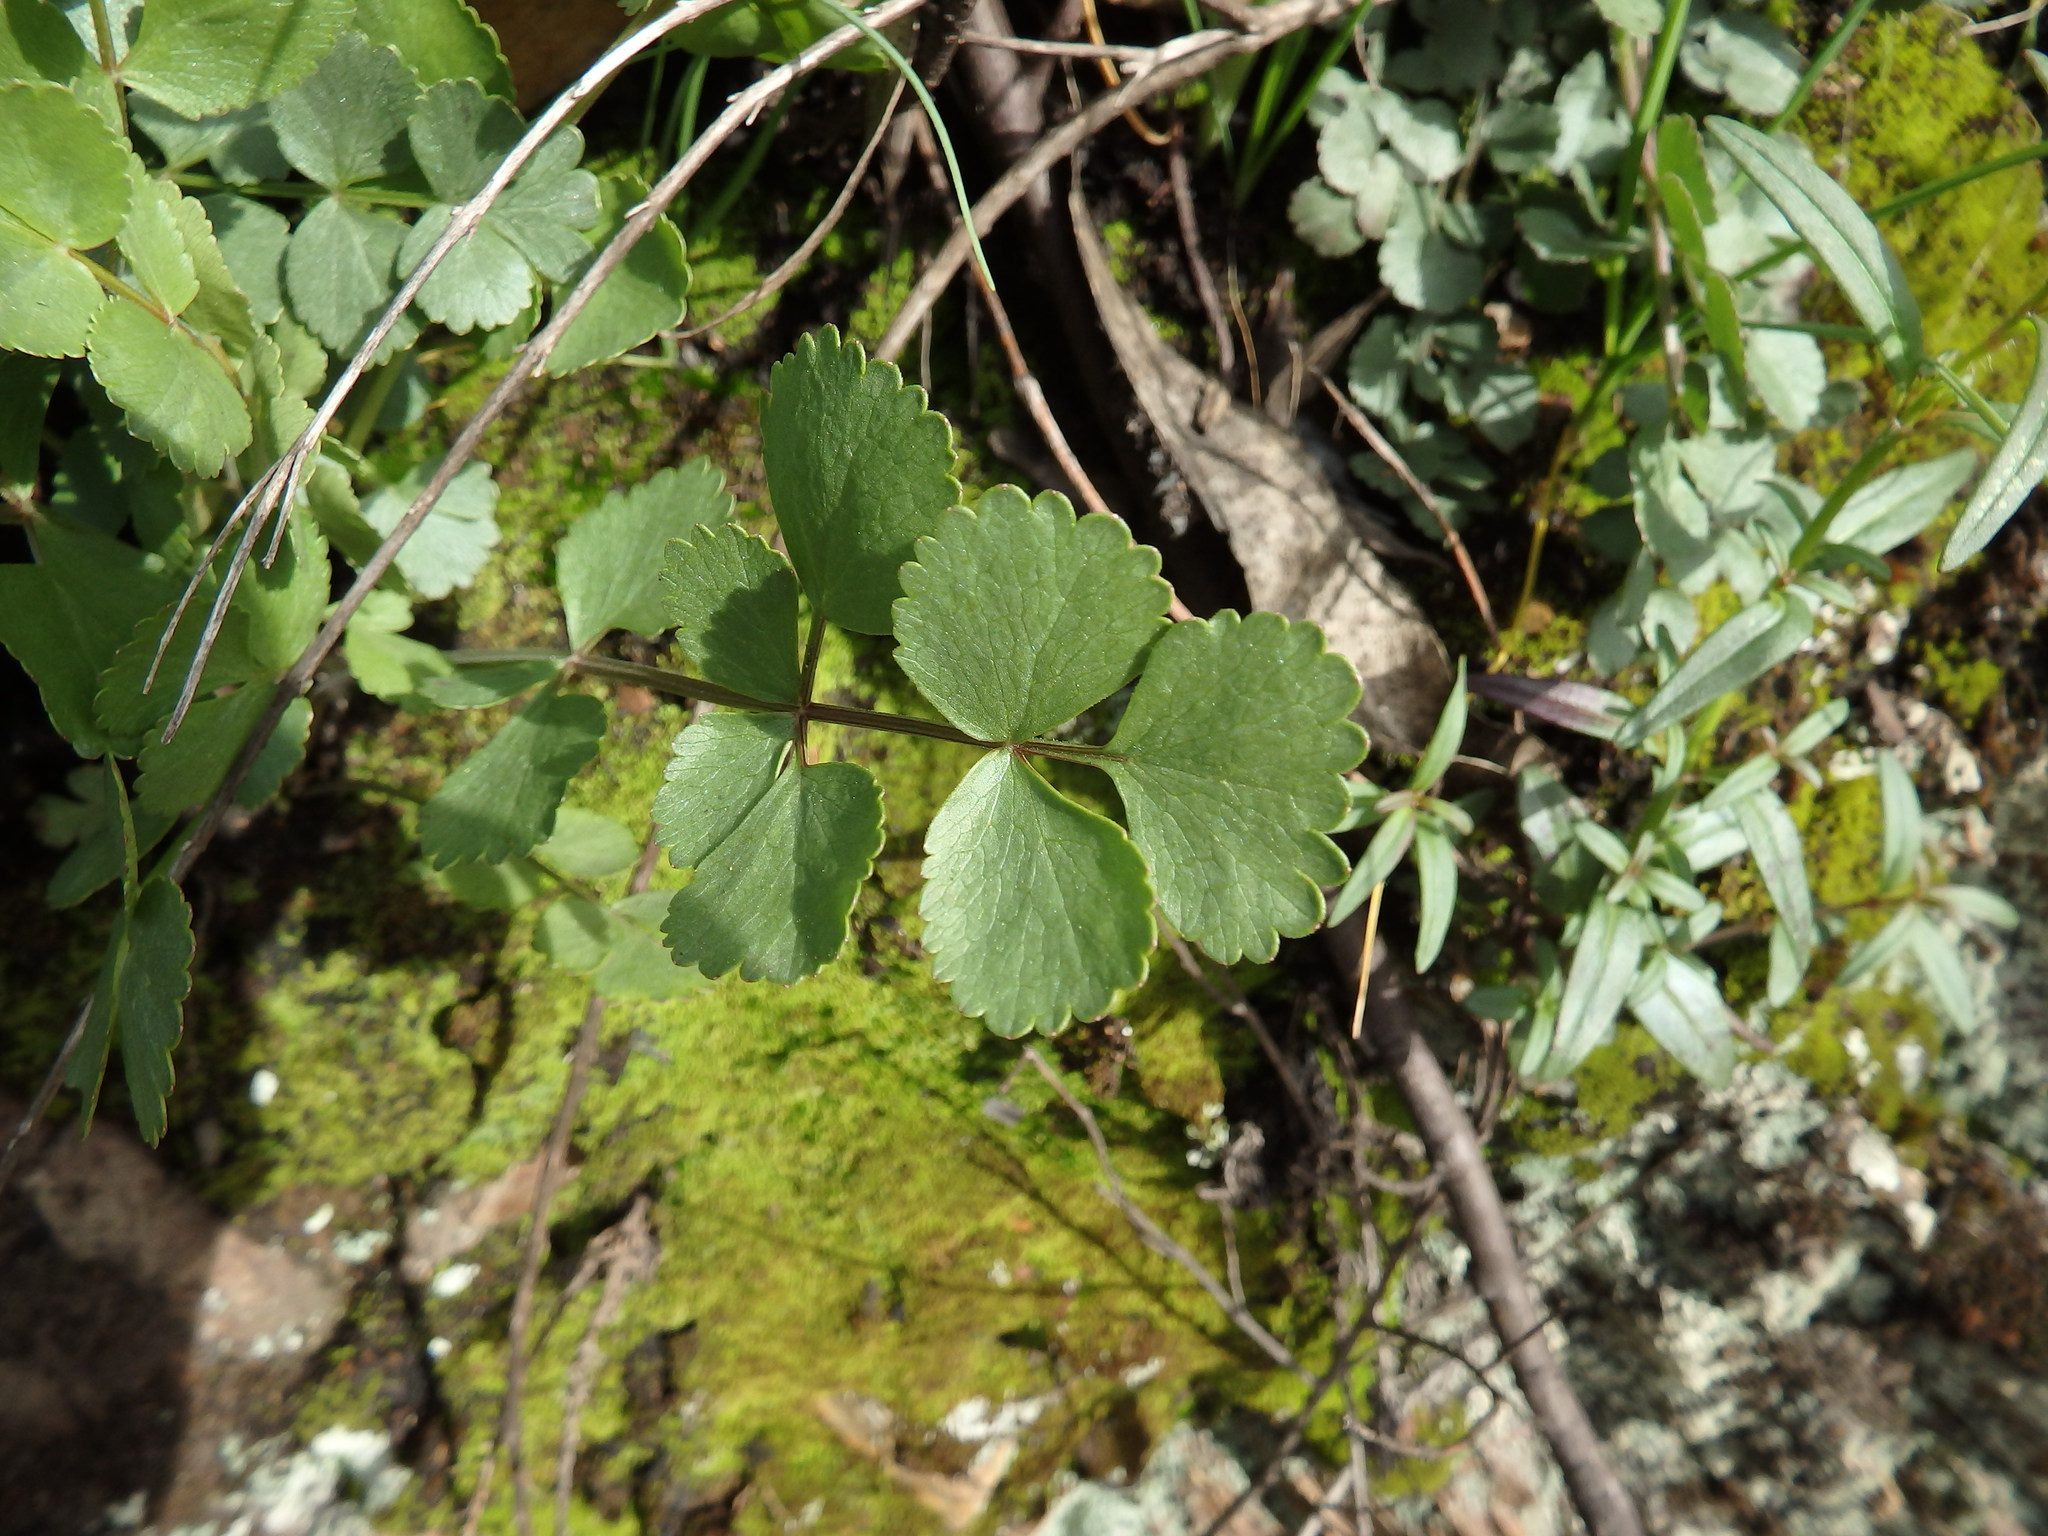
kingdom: Plantae
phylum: Tracheophyta
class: Magnoliopsida
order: Apiales
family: Apiaceae
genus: Pimpinella
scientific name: Pimpinella villosa
